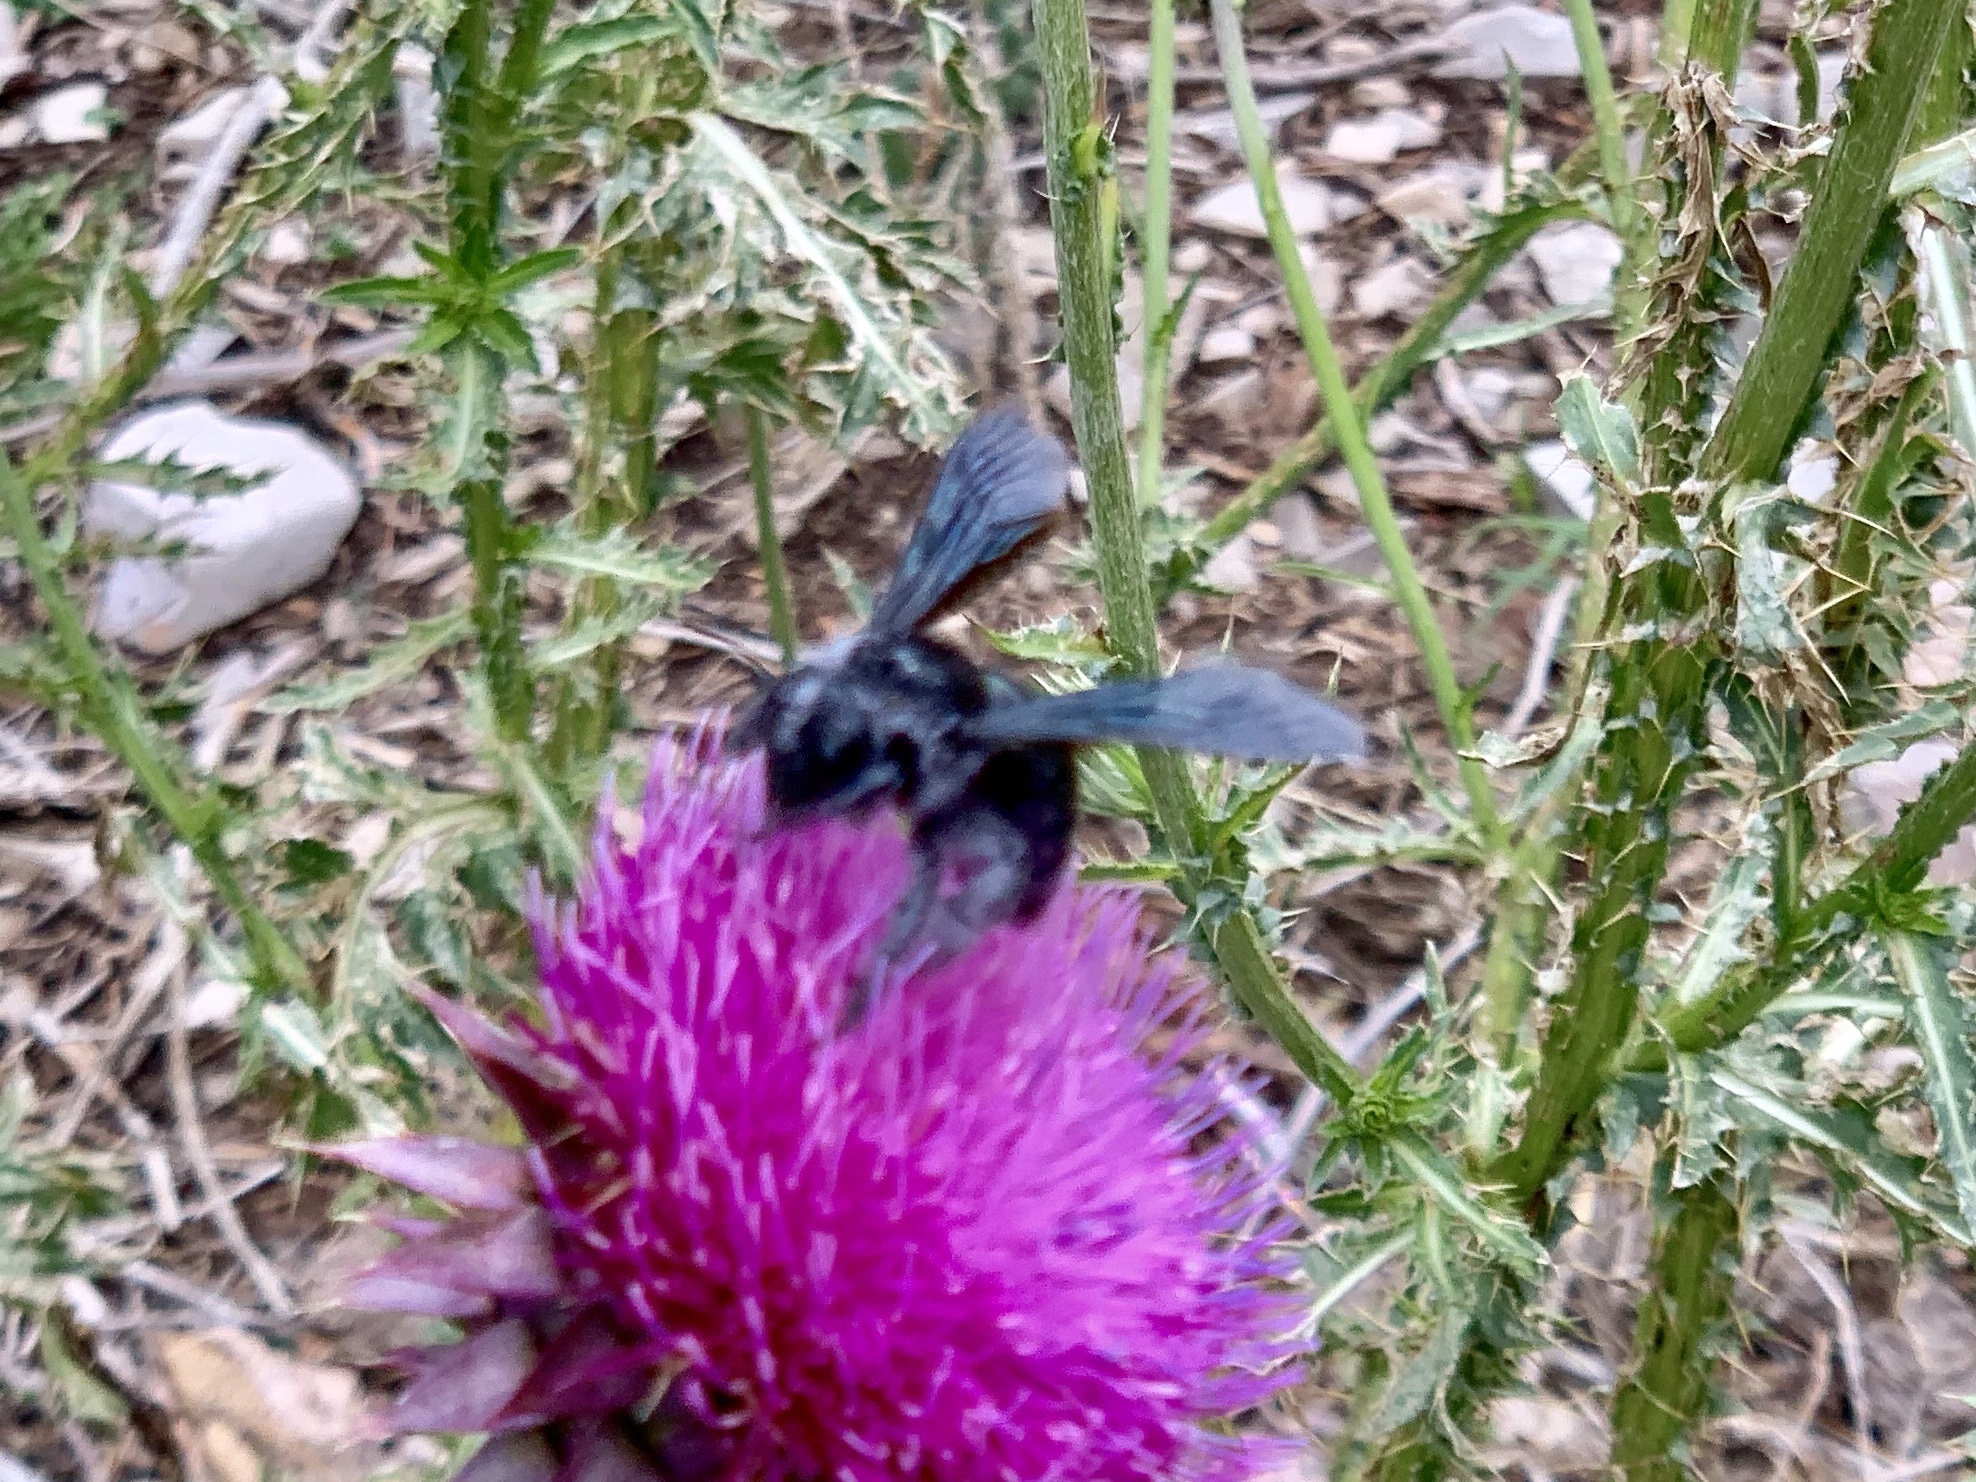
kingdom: Animalia
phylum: Arthropoda
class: Insecta
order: Hymenoptera
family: Apidae
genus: Xylocopa
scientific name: Xylocopa californica
